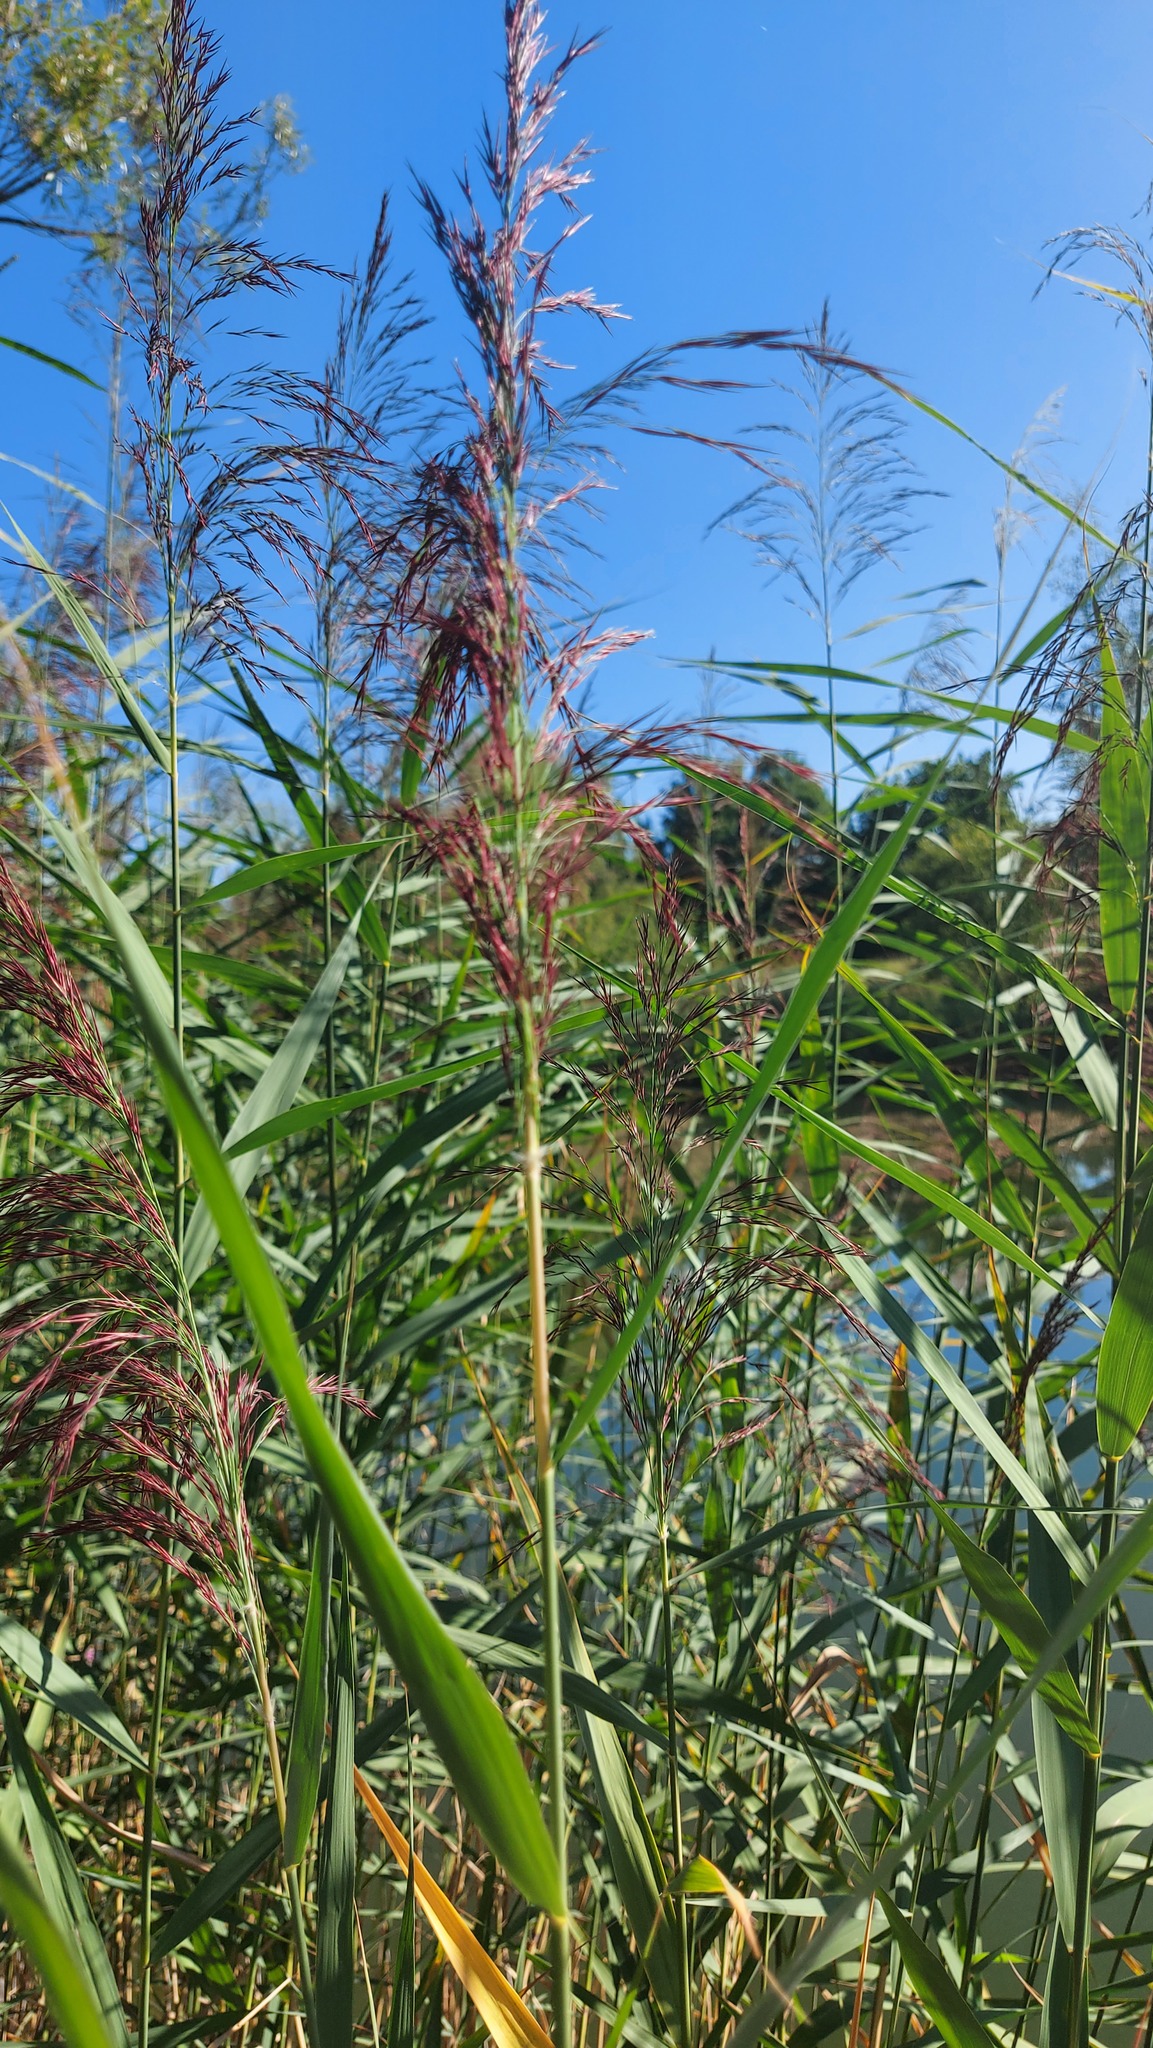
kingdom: Plantae
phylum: Tracheophyta
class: Liliopsida
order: Poales
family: Poaceae
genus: Phragmites
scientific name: Phragmites australis
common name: Common reed
